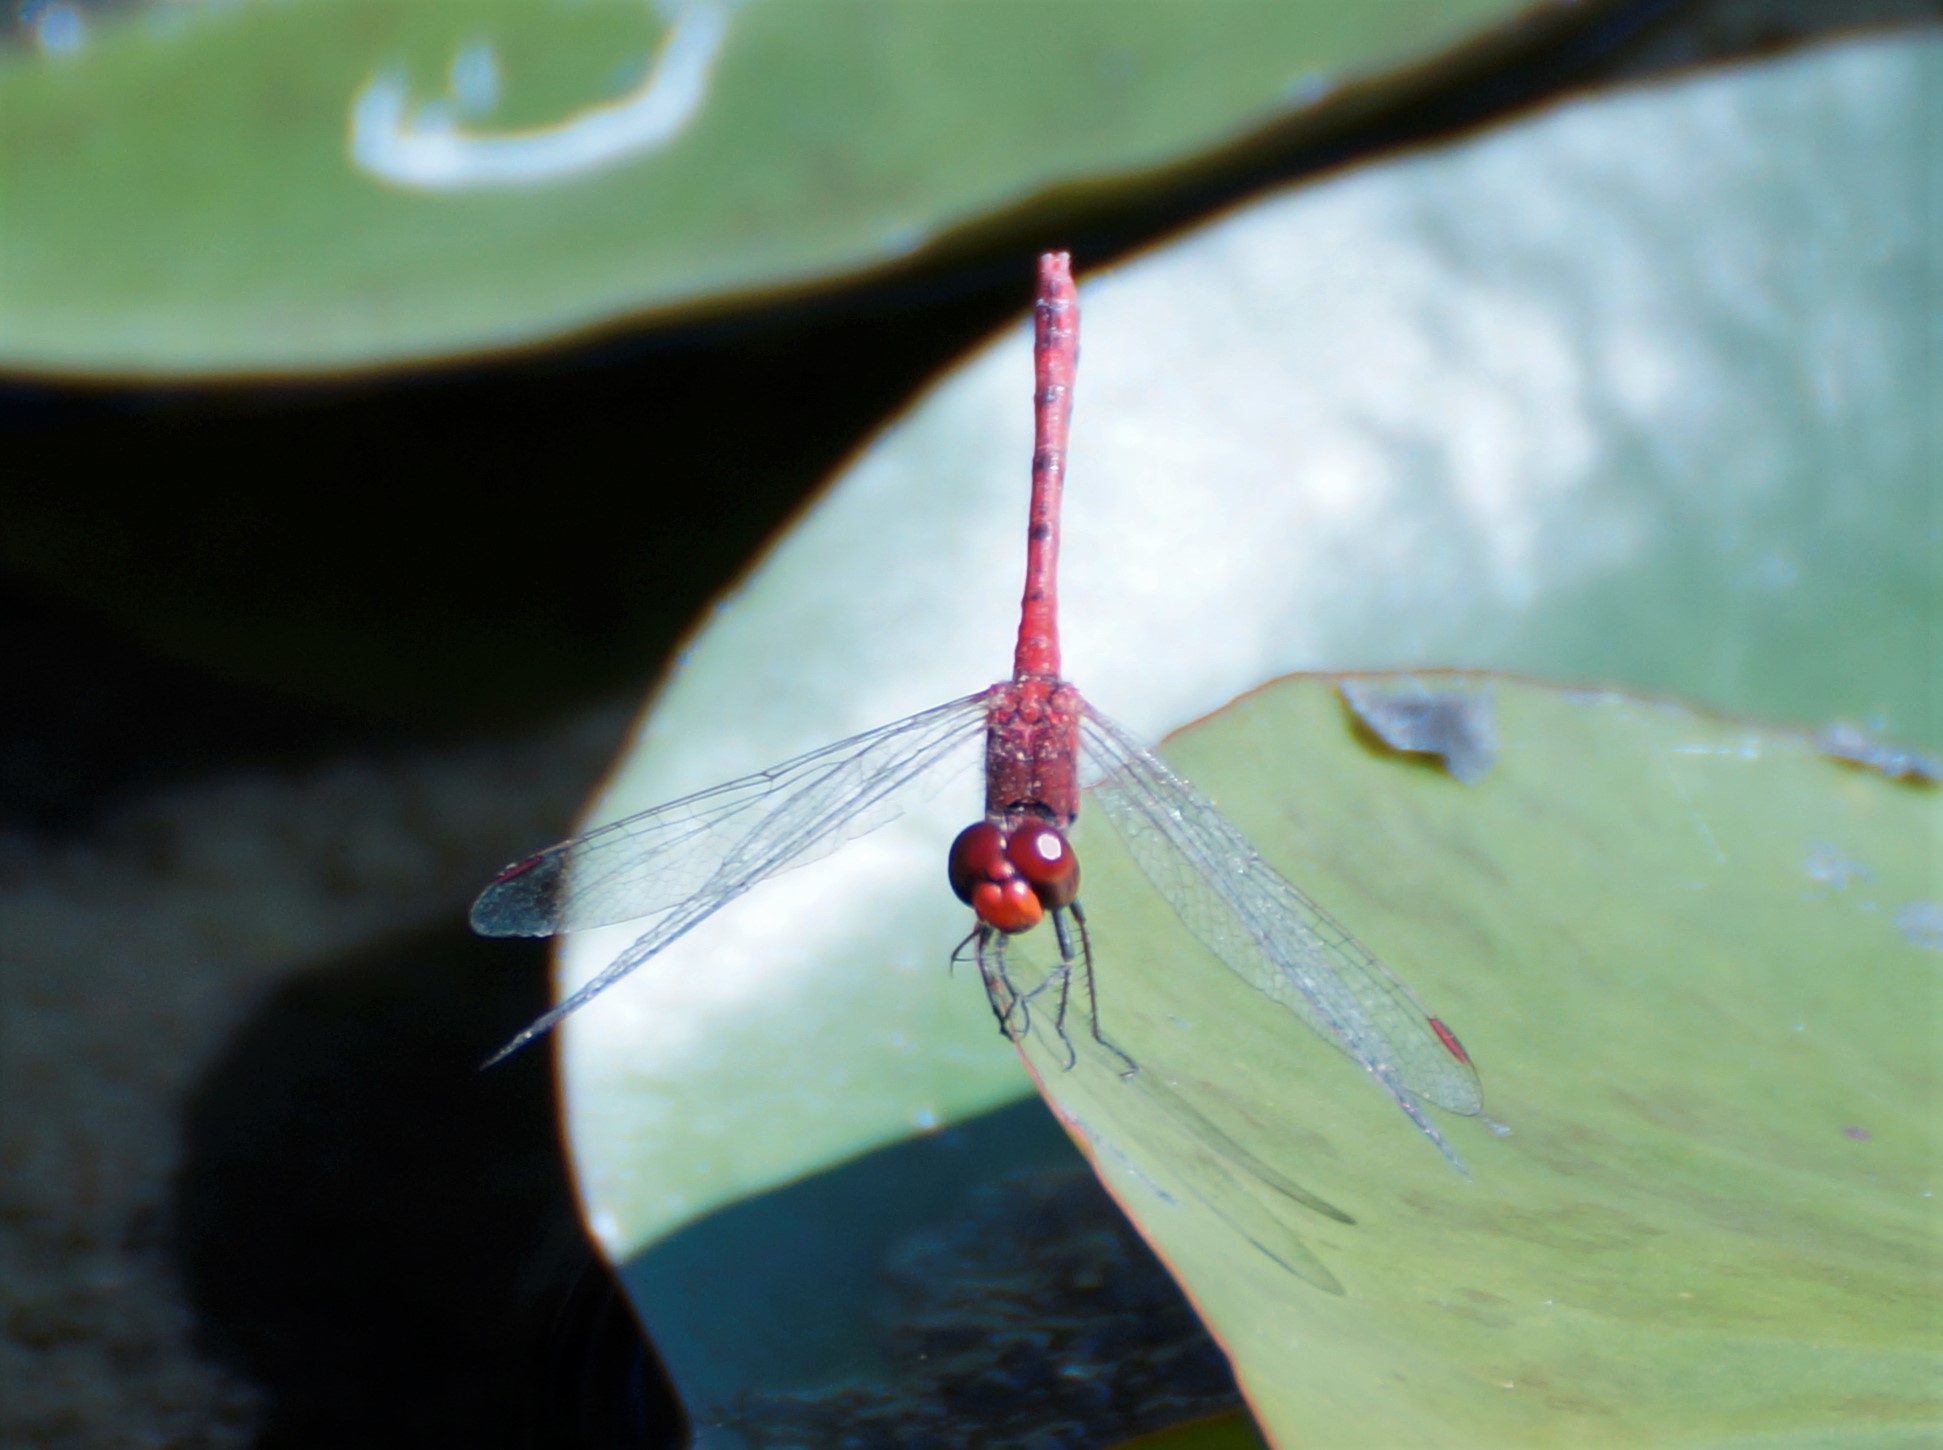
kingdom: Animalia
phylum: Arthropoda
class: Insecta
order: Odonata
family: Libellulidae
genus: Diplacodes
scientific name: Diplacodes bipunctata
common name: Red percher dragonfly
